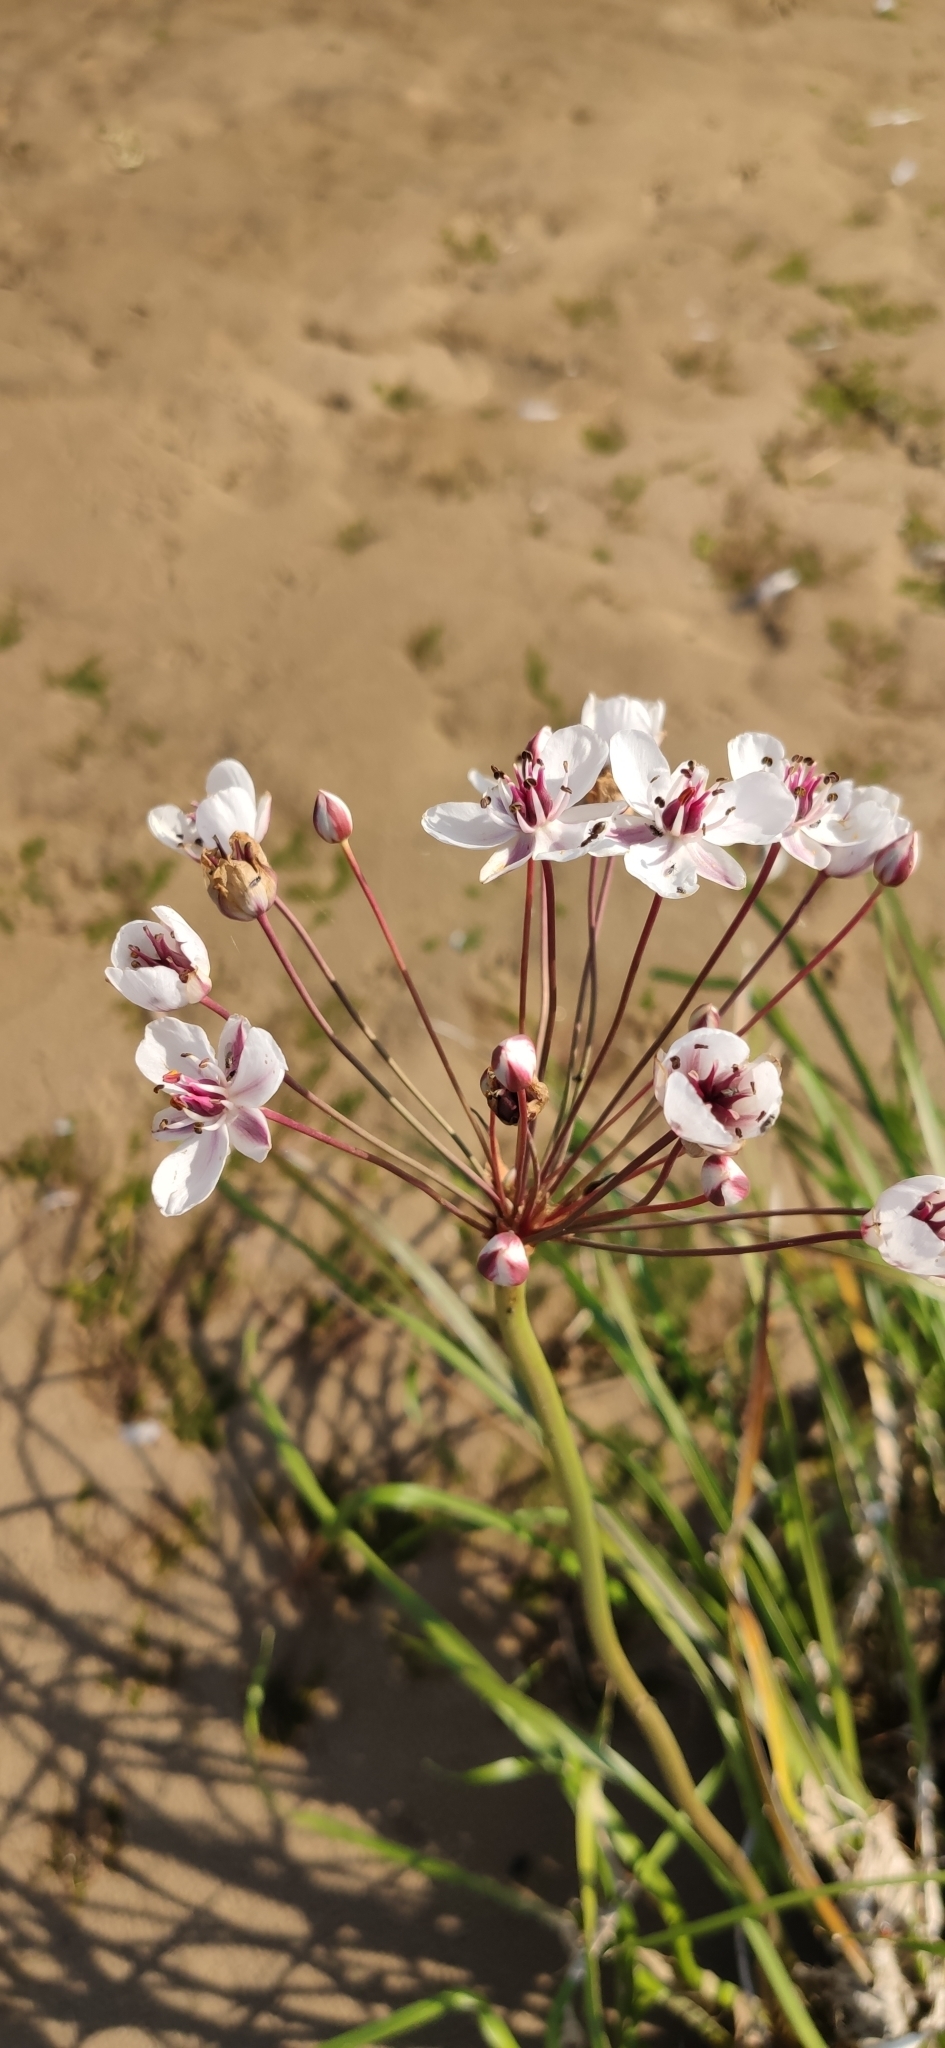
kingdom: Plantae
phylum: Tracheophyta
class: Liliopsida
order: Alismatales
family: Butomaceae
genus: Butomus
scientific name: Butomus umbellatus
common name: Flowering-rush
